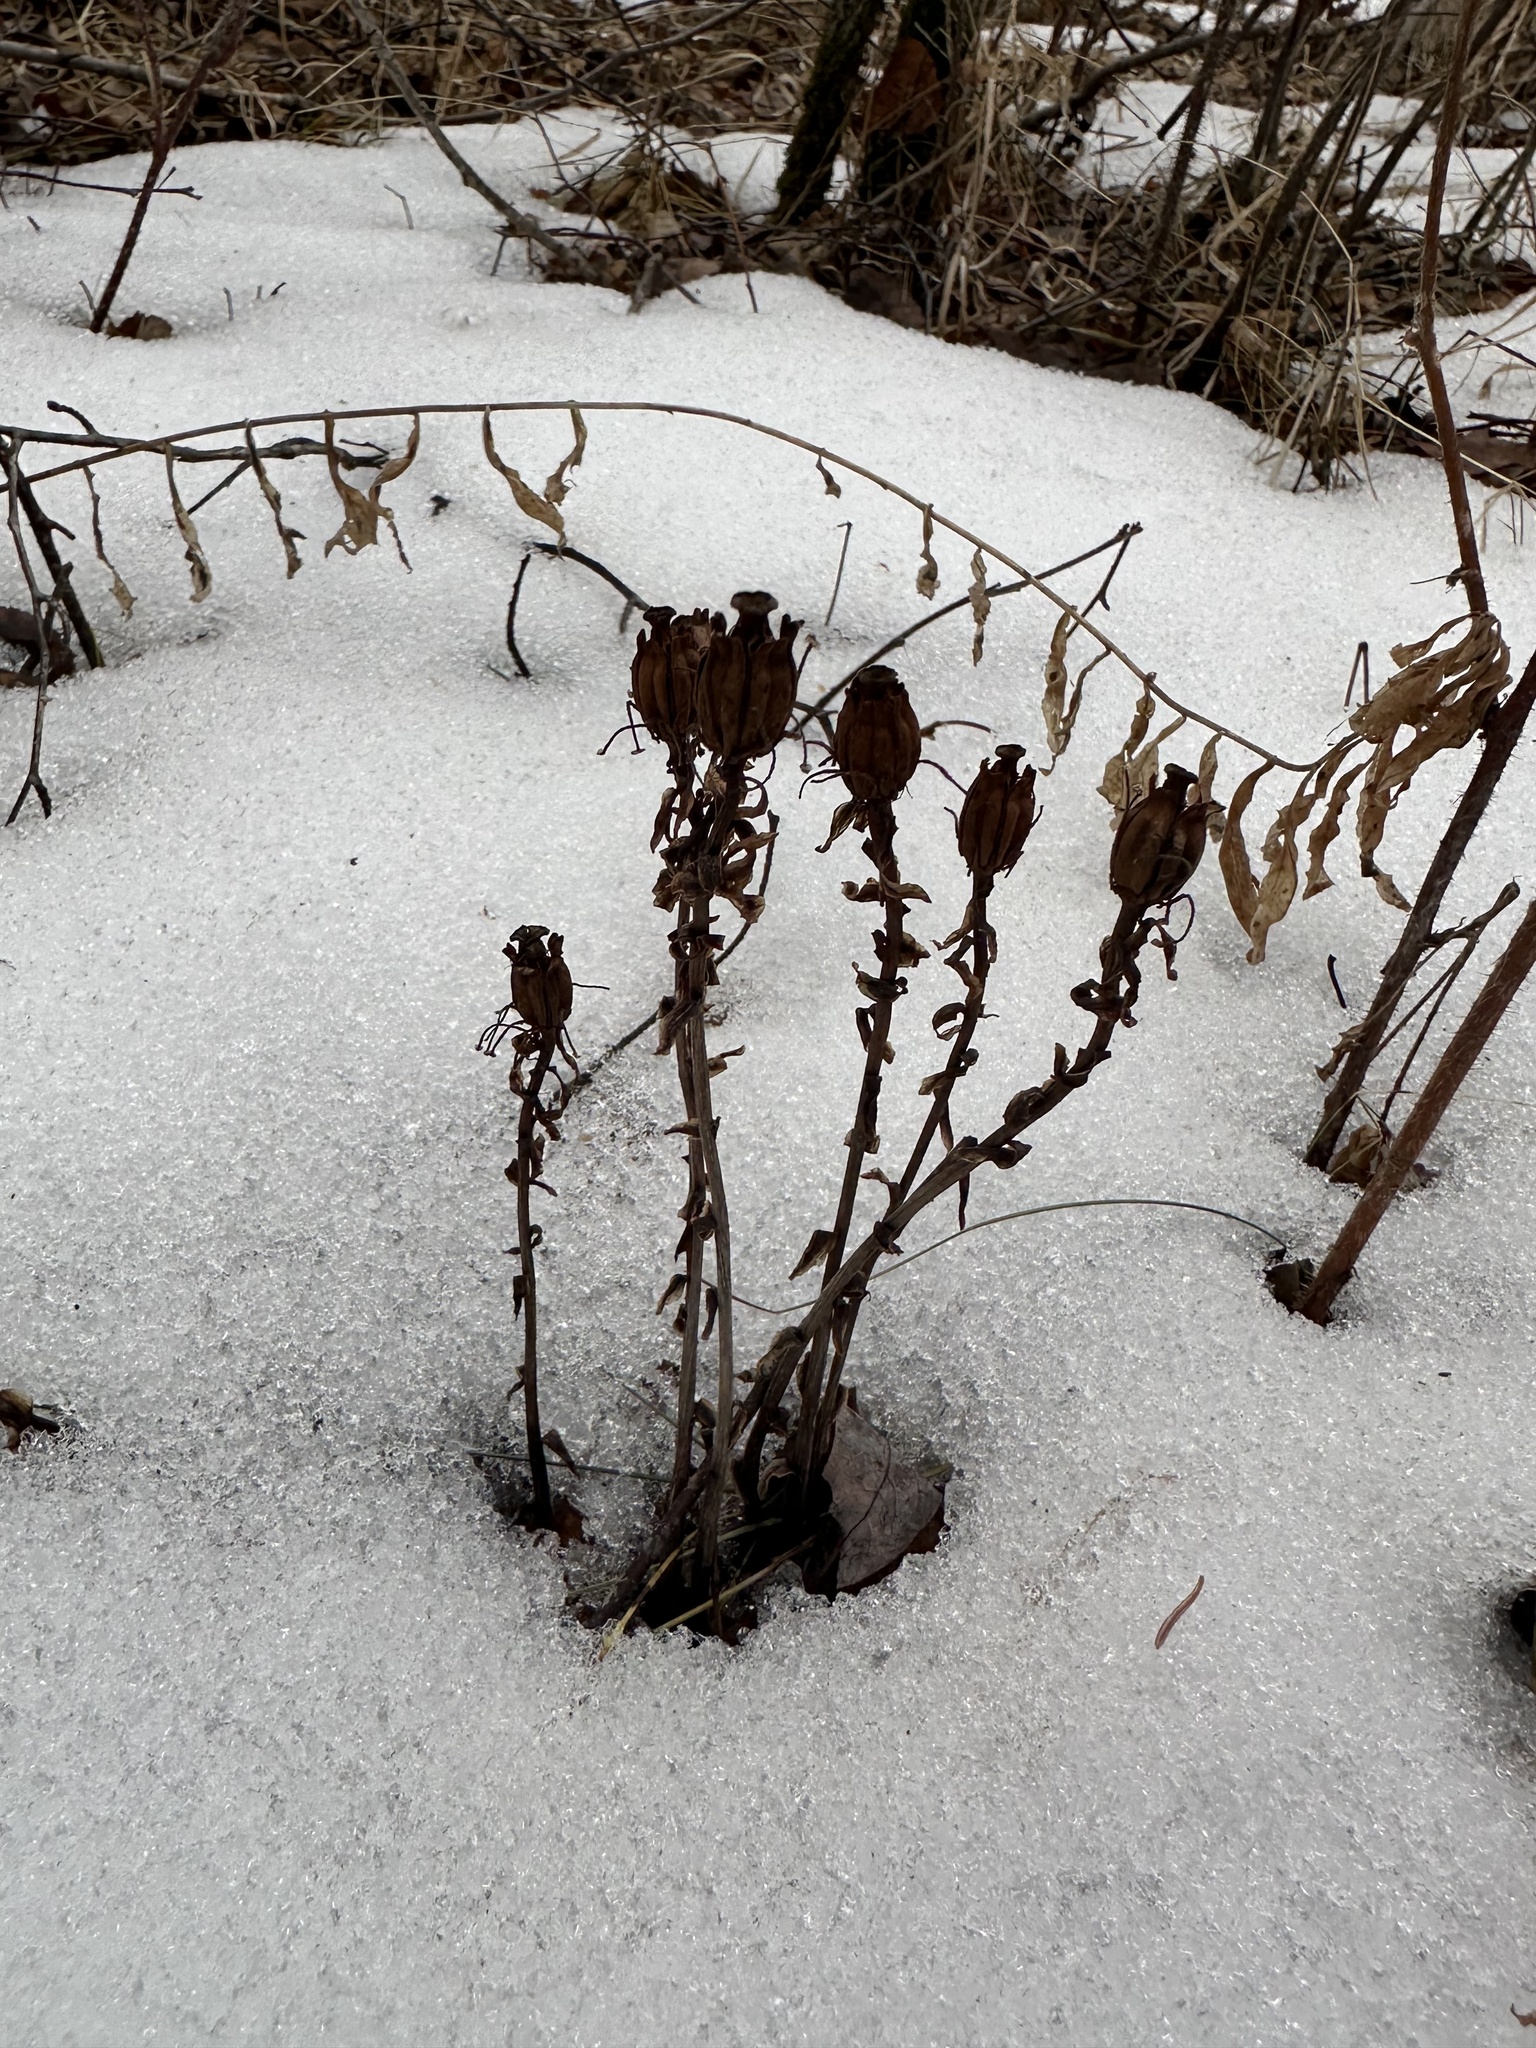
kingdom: Plantae
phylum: Tracheophyta
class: Magnoliopsida
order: Ericales
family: Ericaceae
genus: Monotropa
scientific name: Monotropa uniflora
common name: Convulsion root
